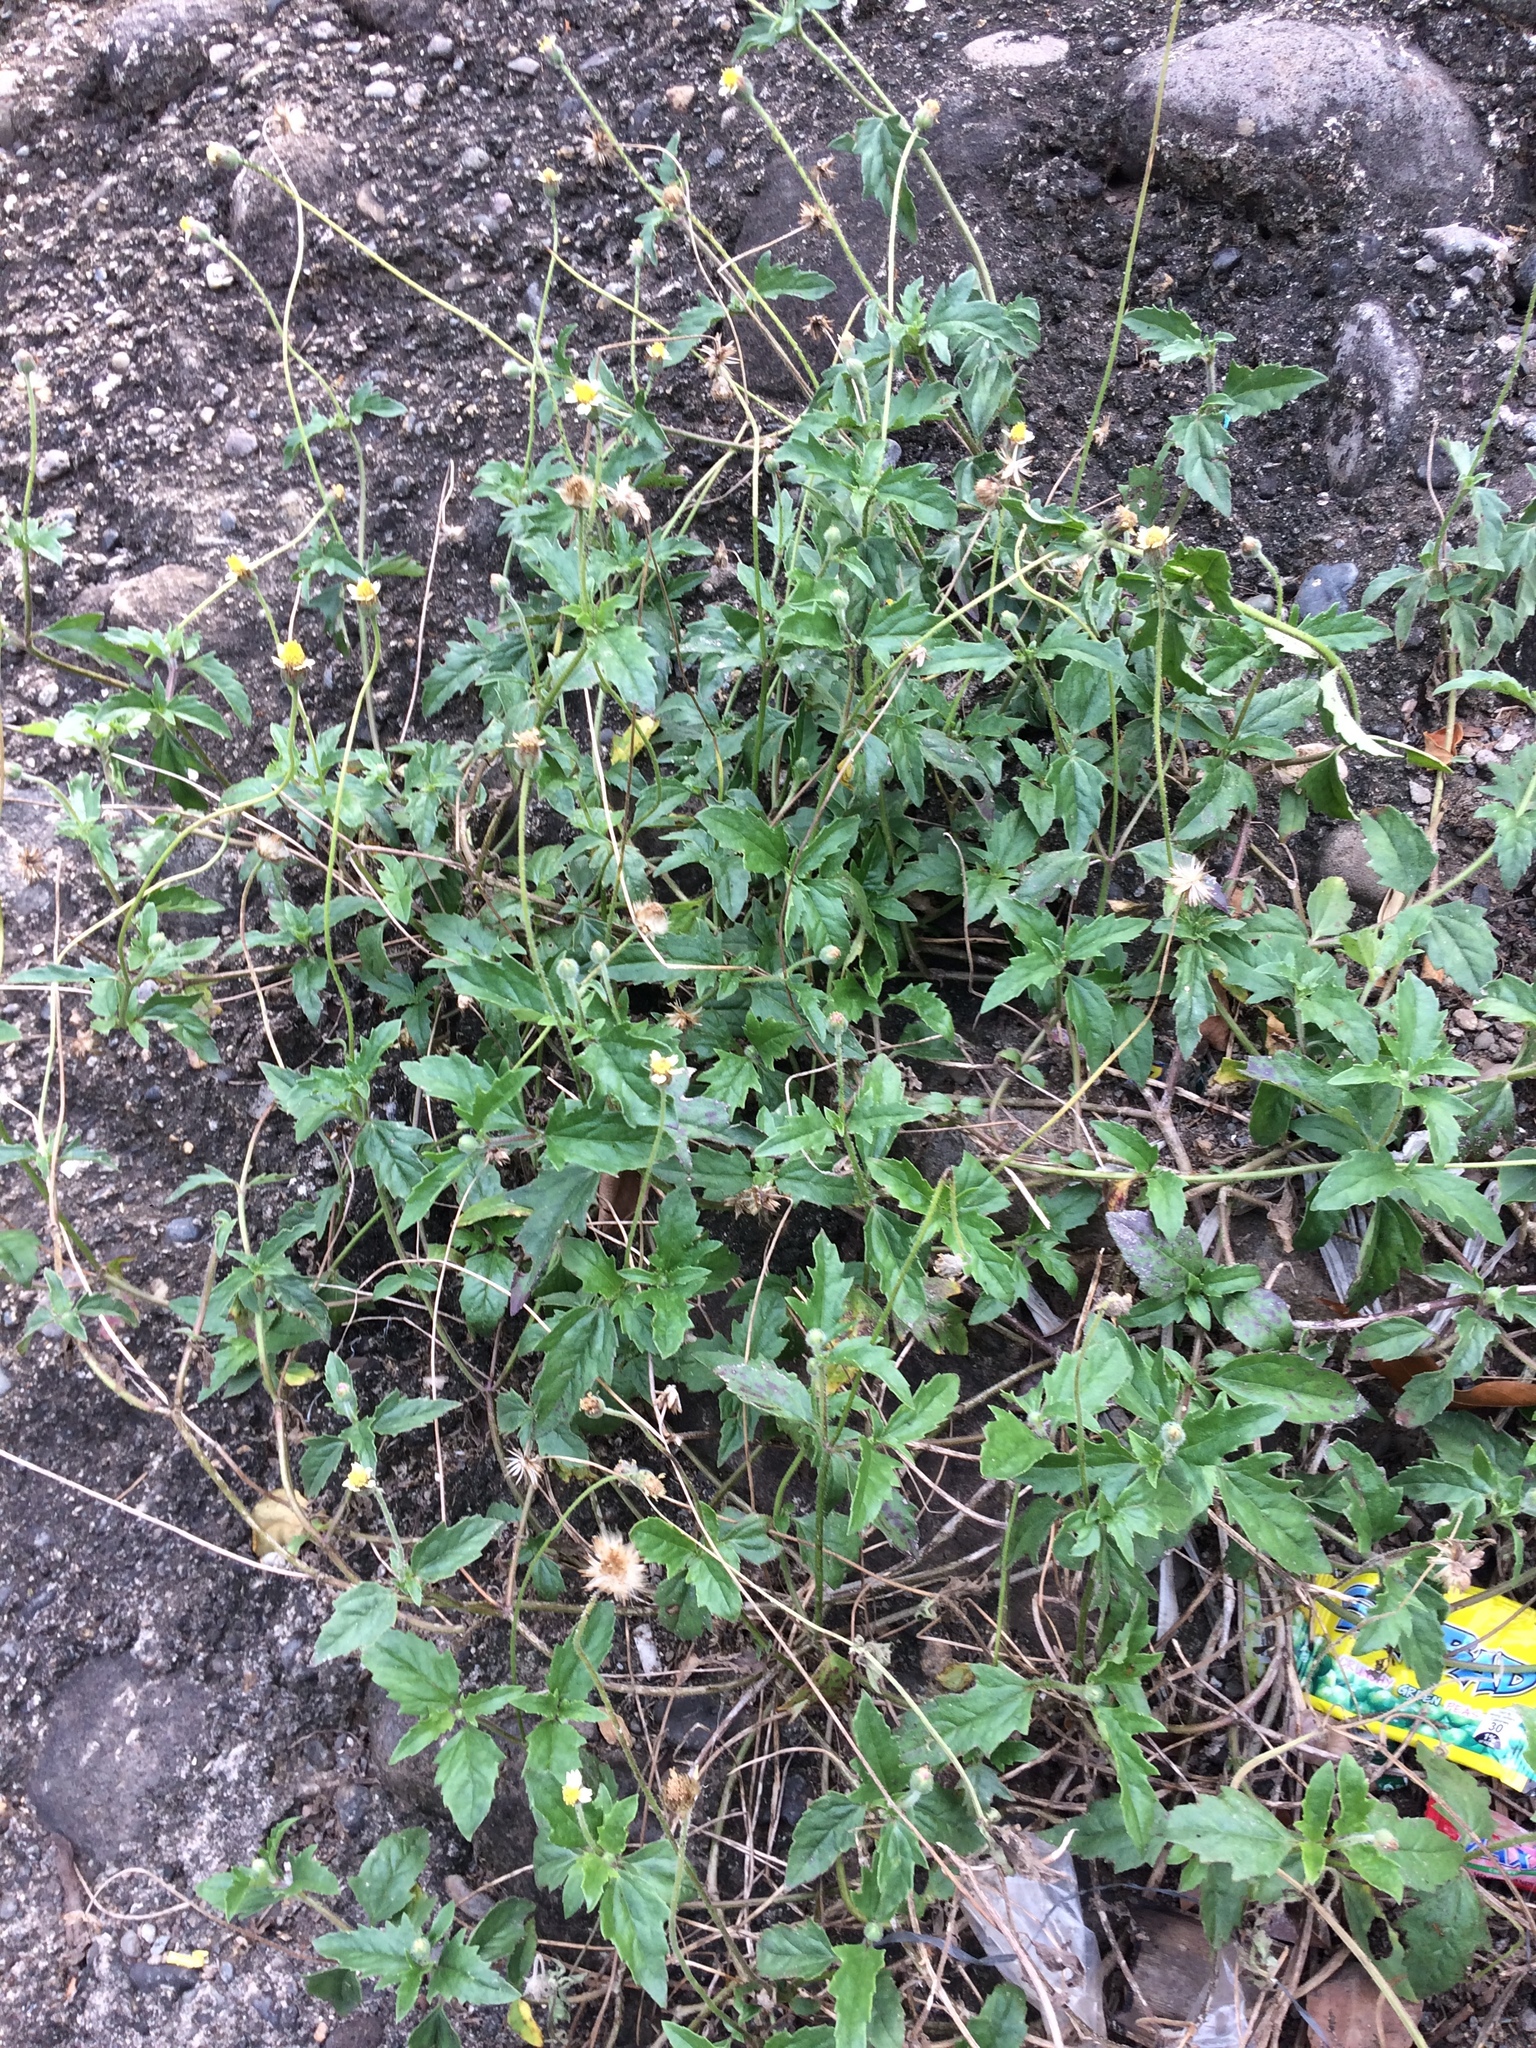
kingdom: Plantae
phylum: Tracheophyta
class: Magnoliopsida
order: Asterales
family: Asteraceae
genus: Tridax
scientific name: Tridax procumbens
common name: Coatbuttons
